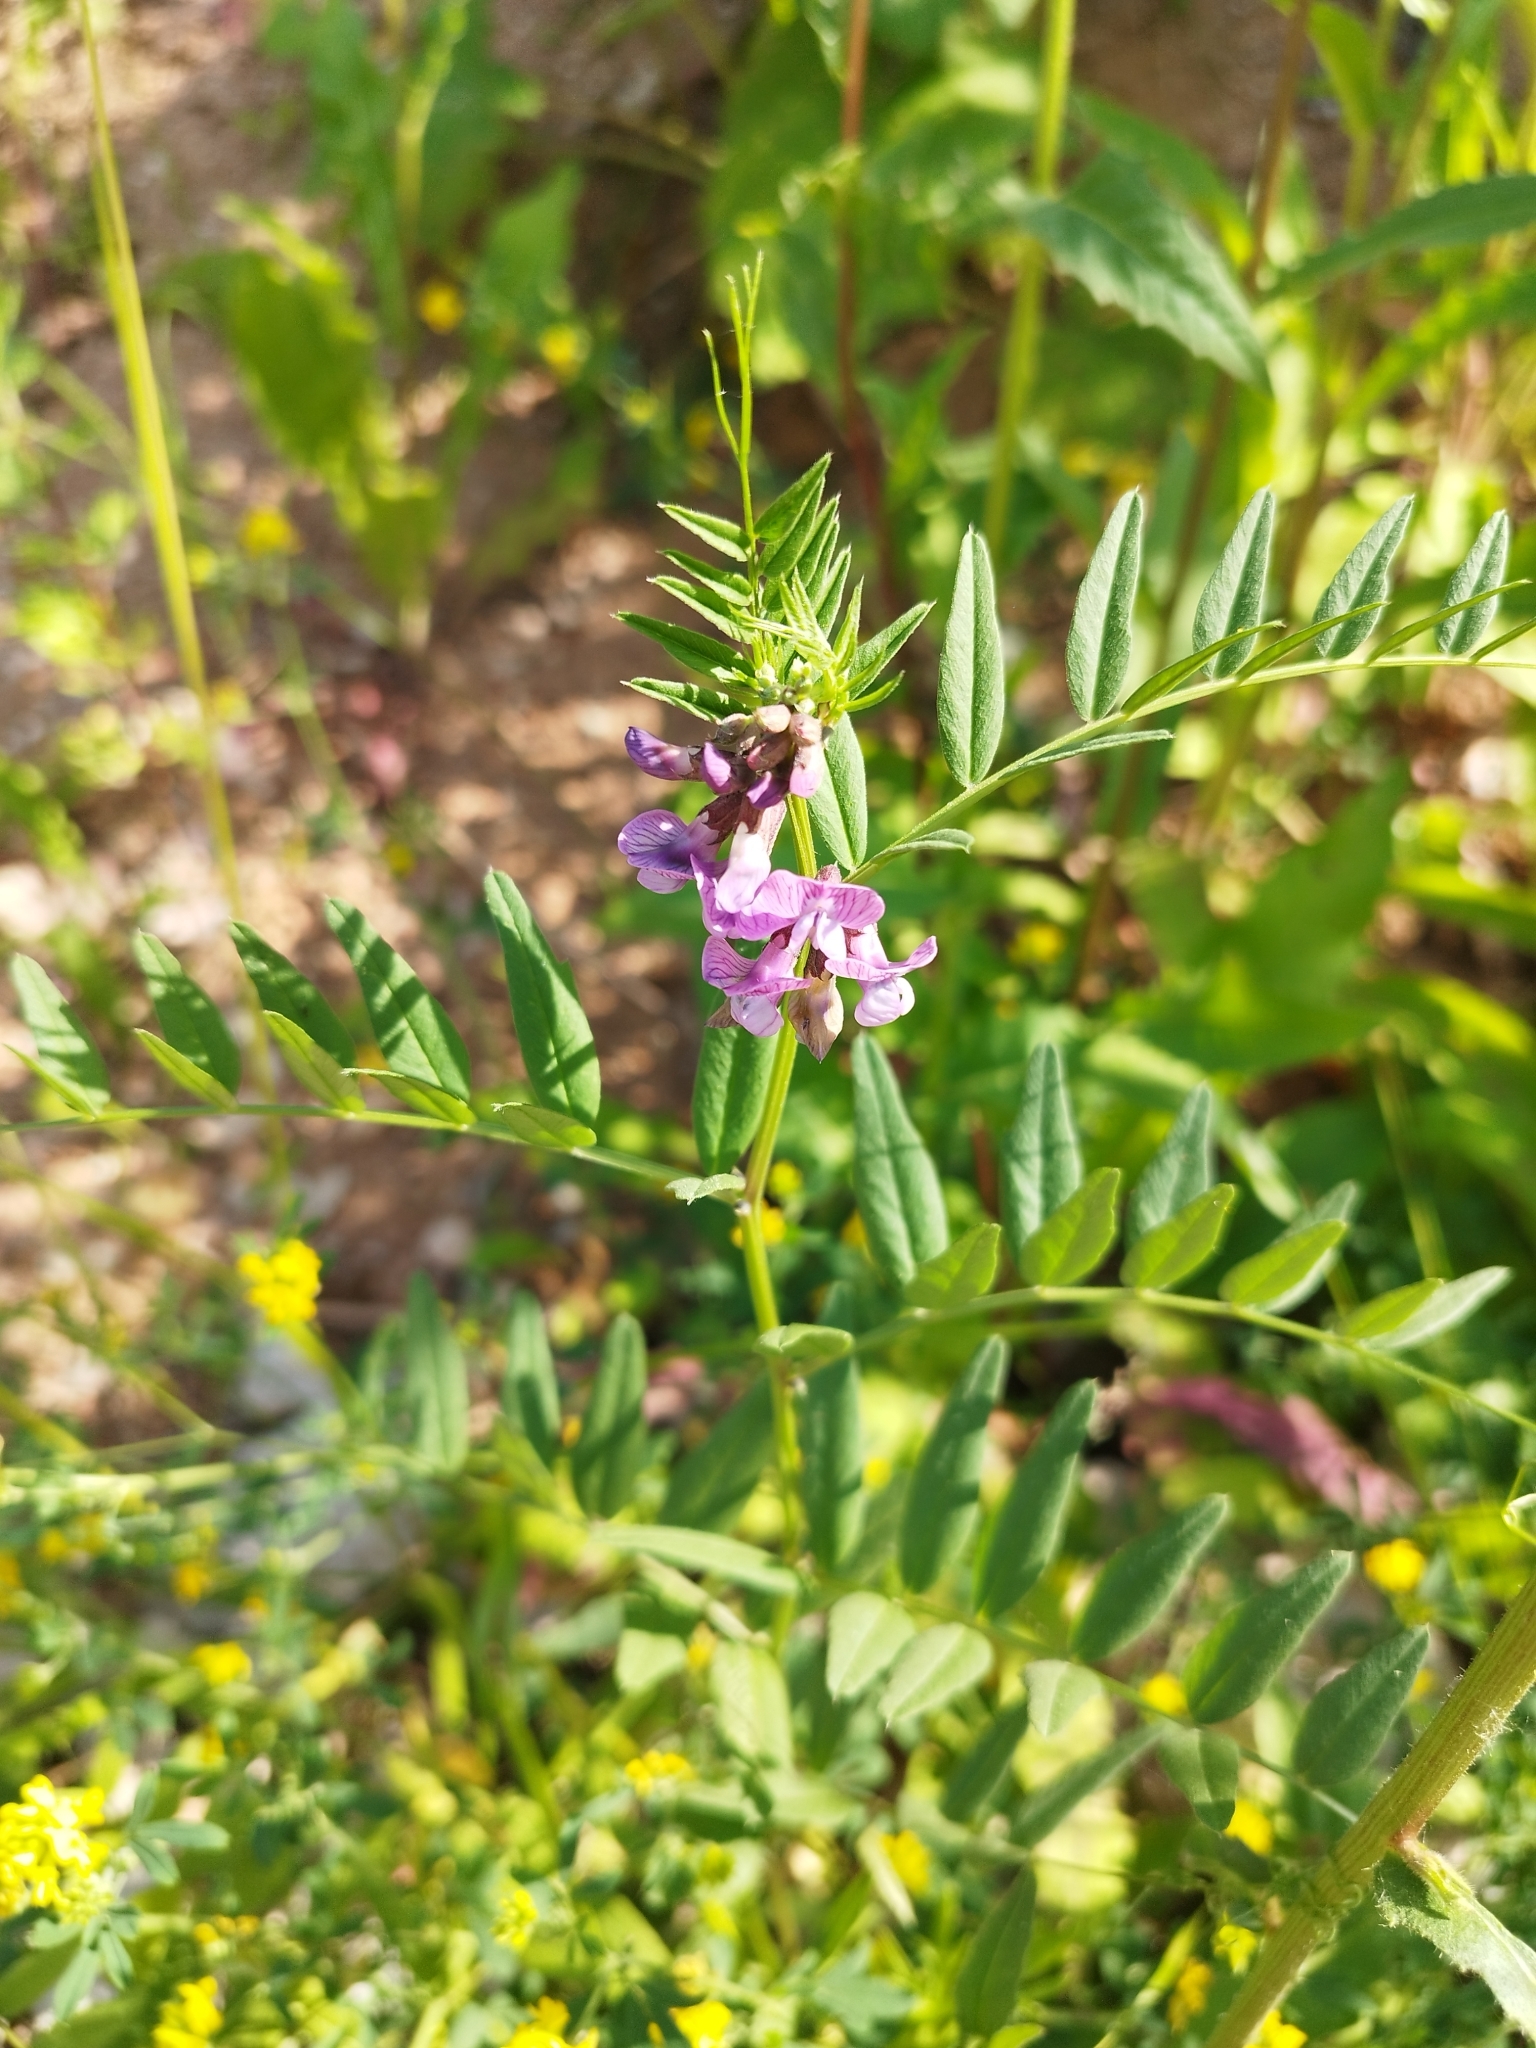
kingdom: Plantae
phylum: Tracheophyta
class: Magnoliopsida
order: Fabales
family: Fabaceae
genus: Vicia
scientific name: Vicia sepium
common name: Bush vetch
